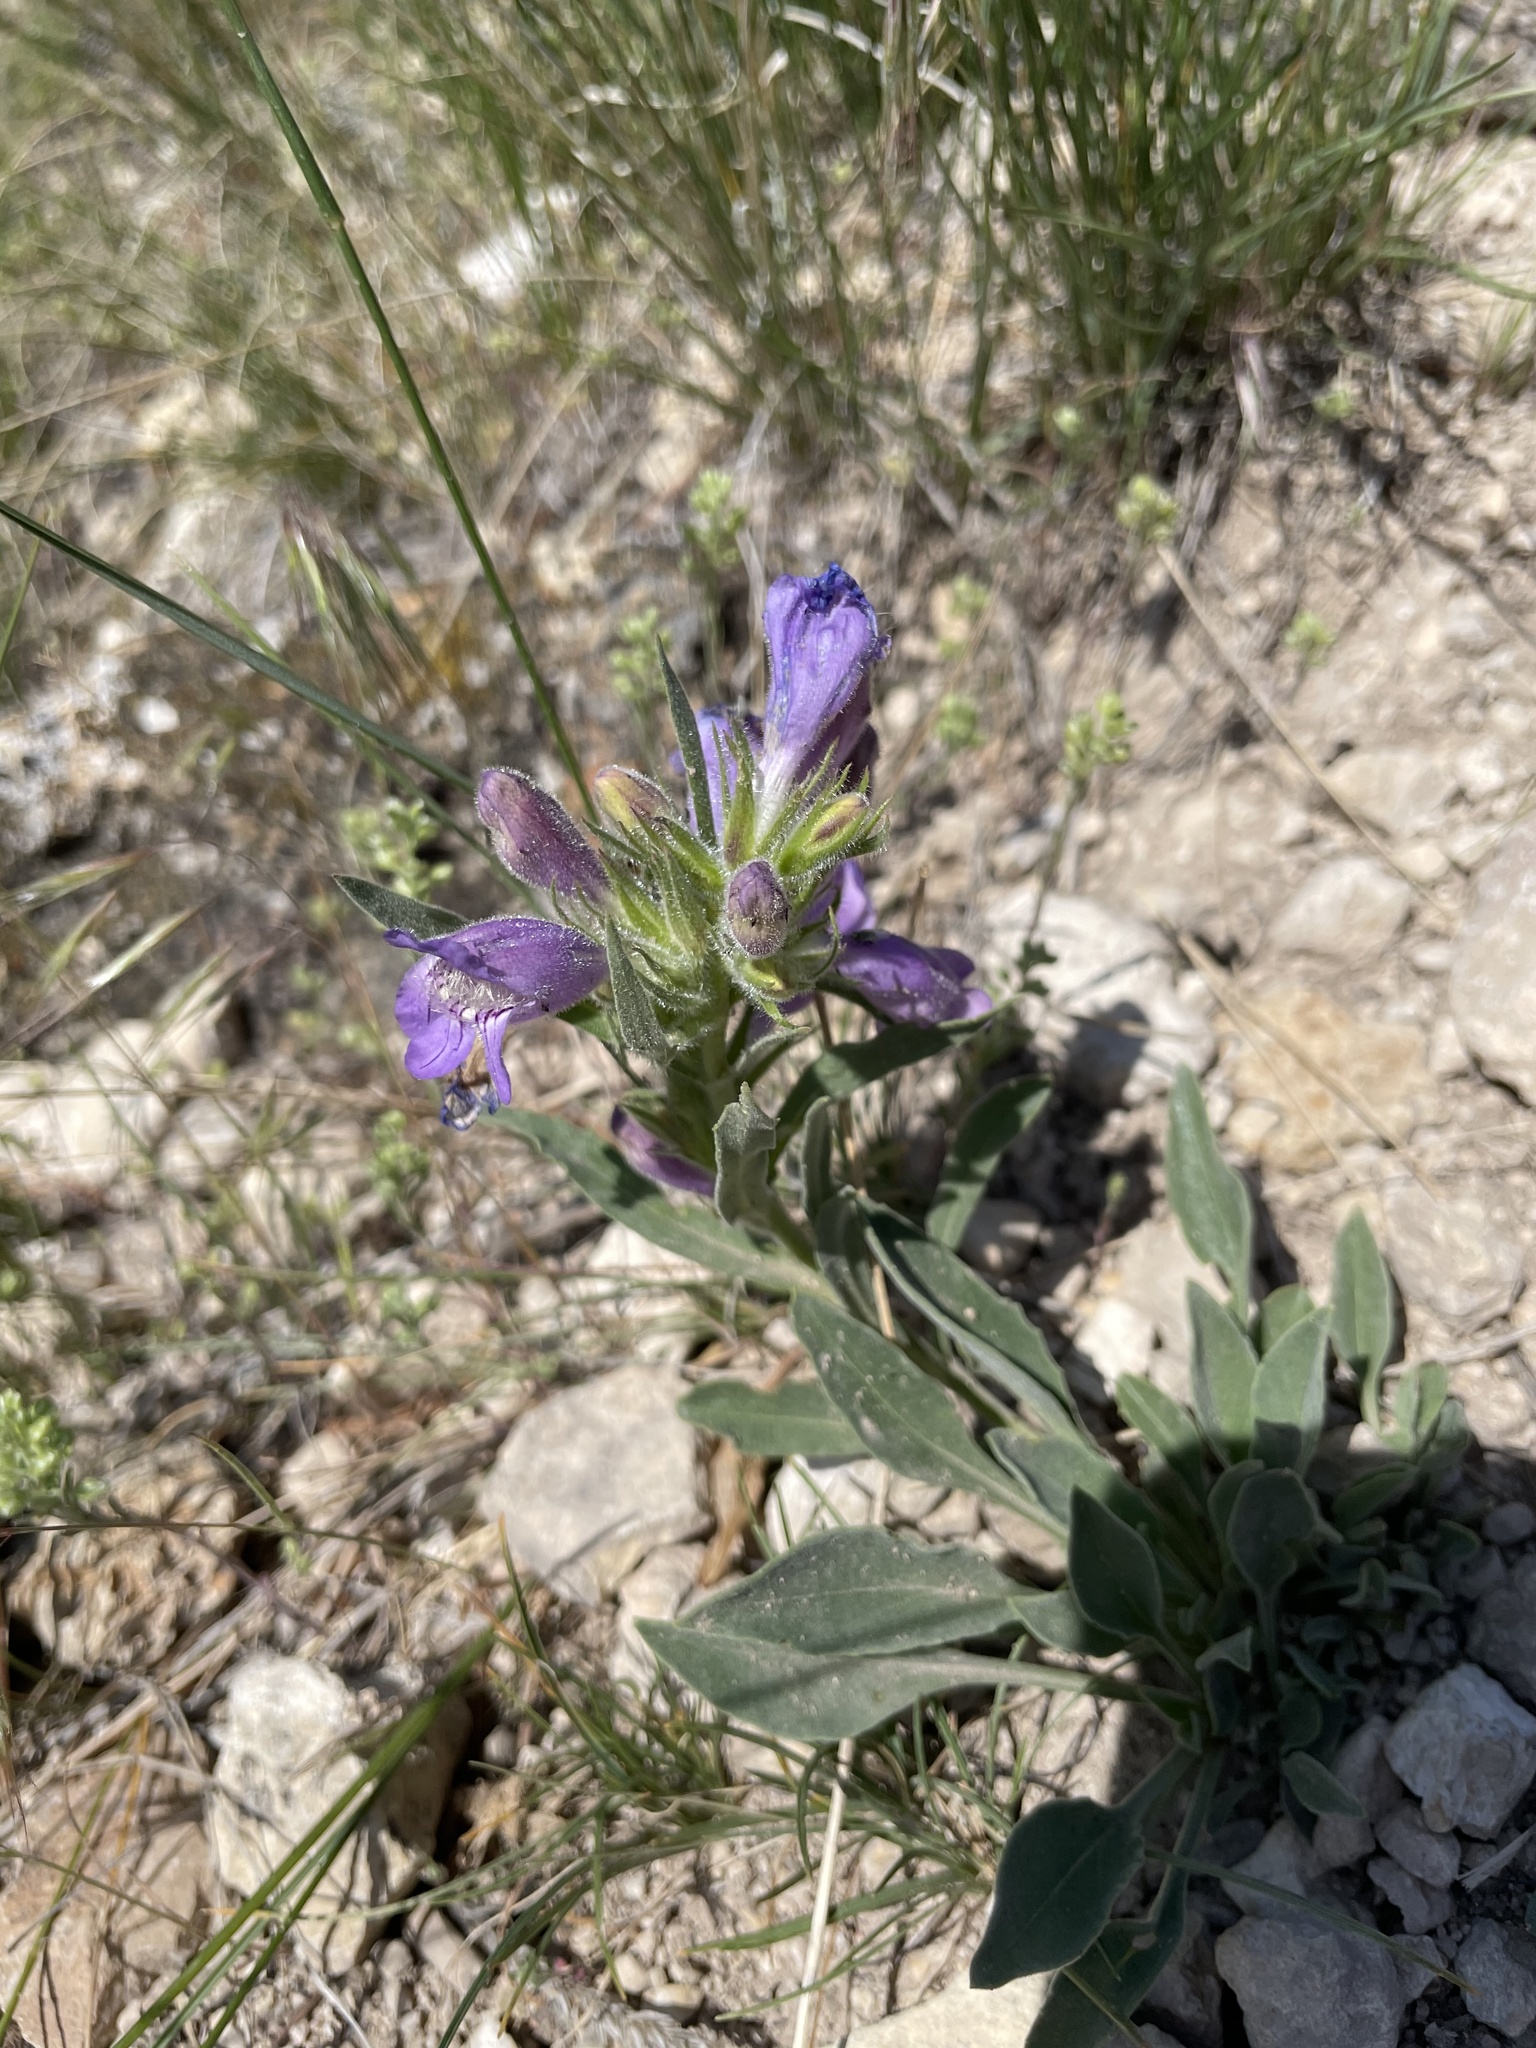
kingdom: Plantae
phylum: Tracheophyta
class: Magnoliopsida
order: Lamiales
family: Plantaginaceae
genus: Penstemon
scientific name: Penstemon eriantherus
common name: Crested beardtongue
